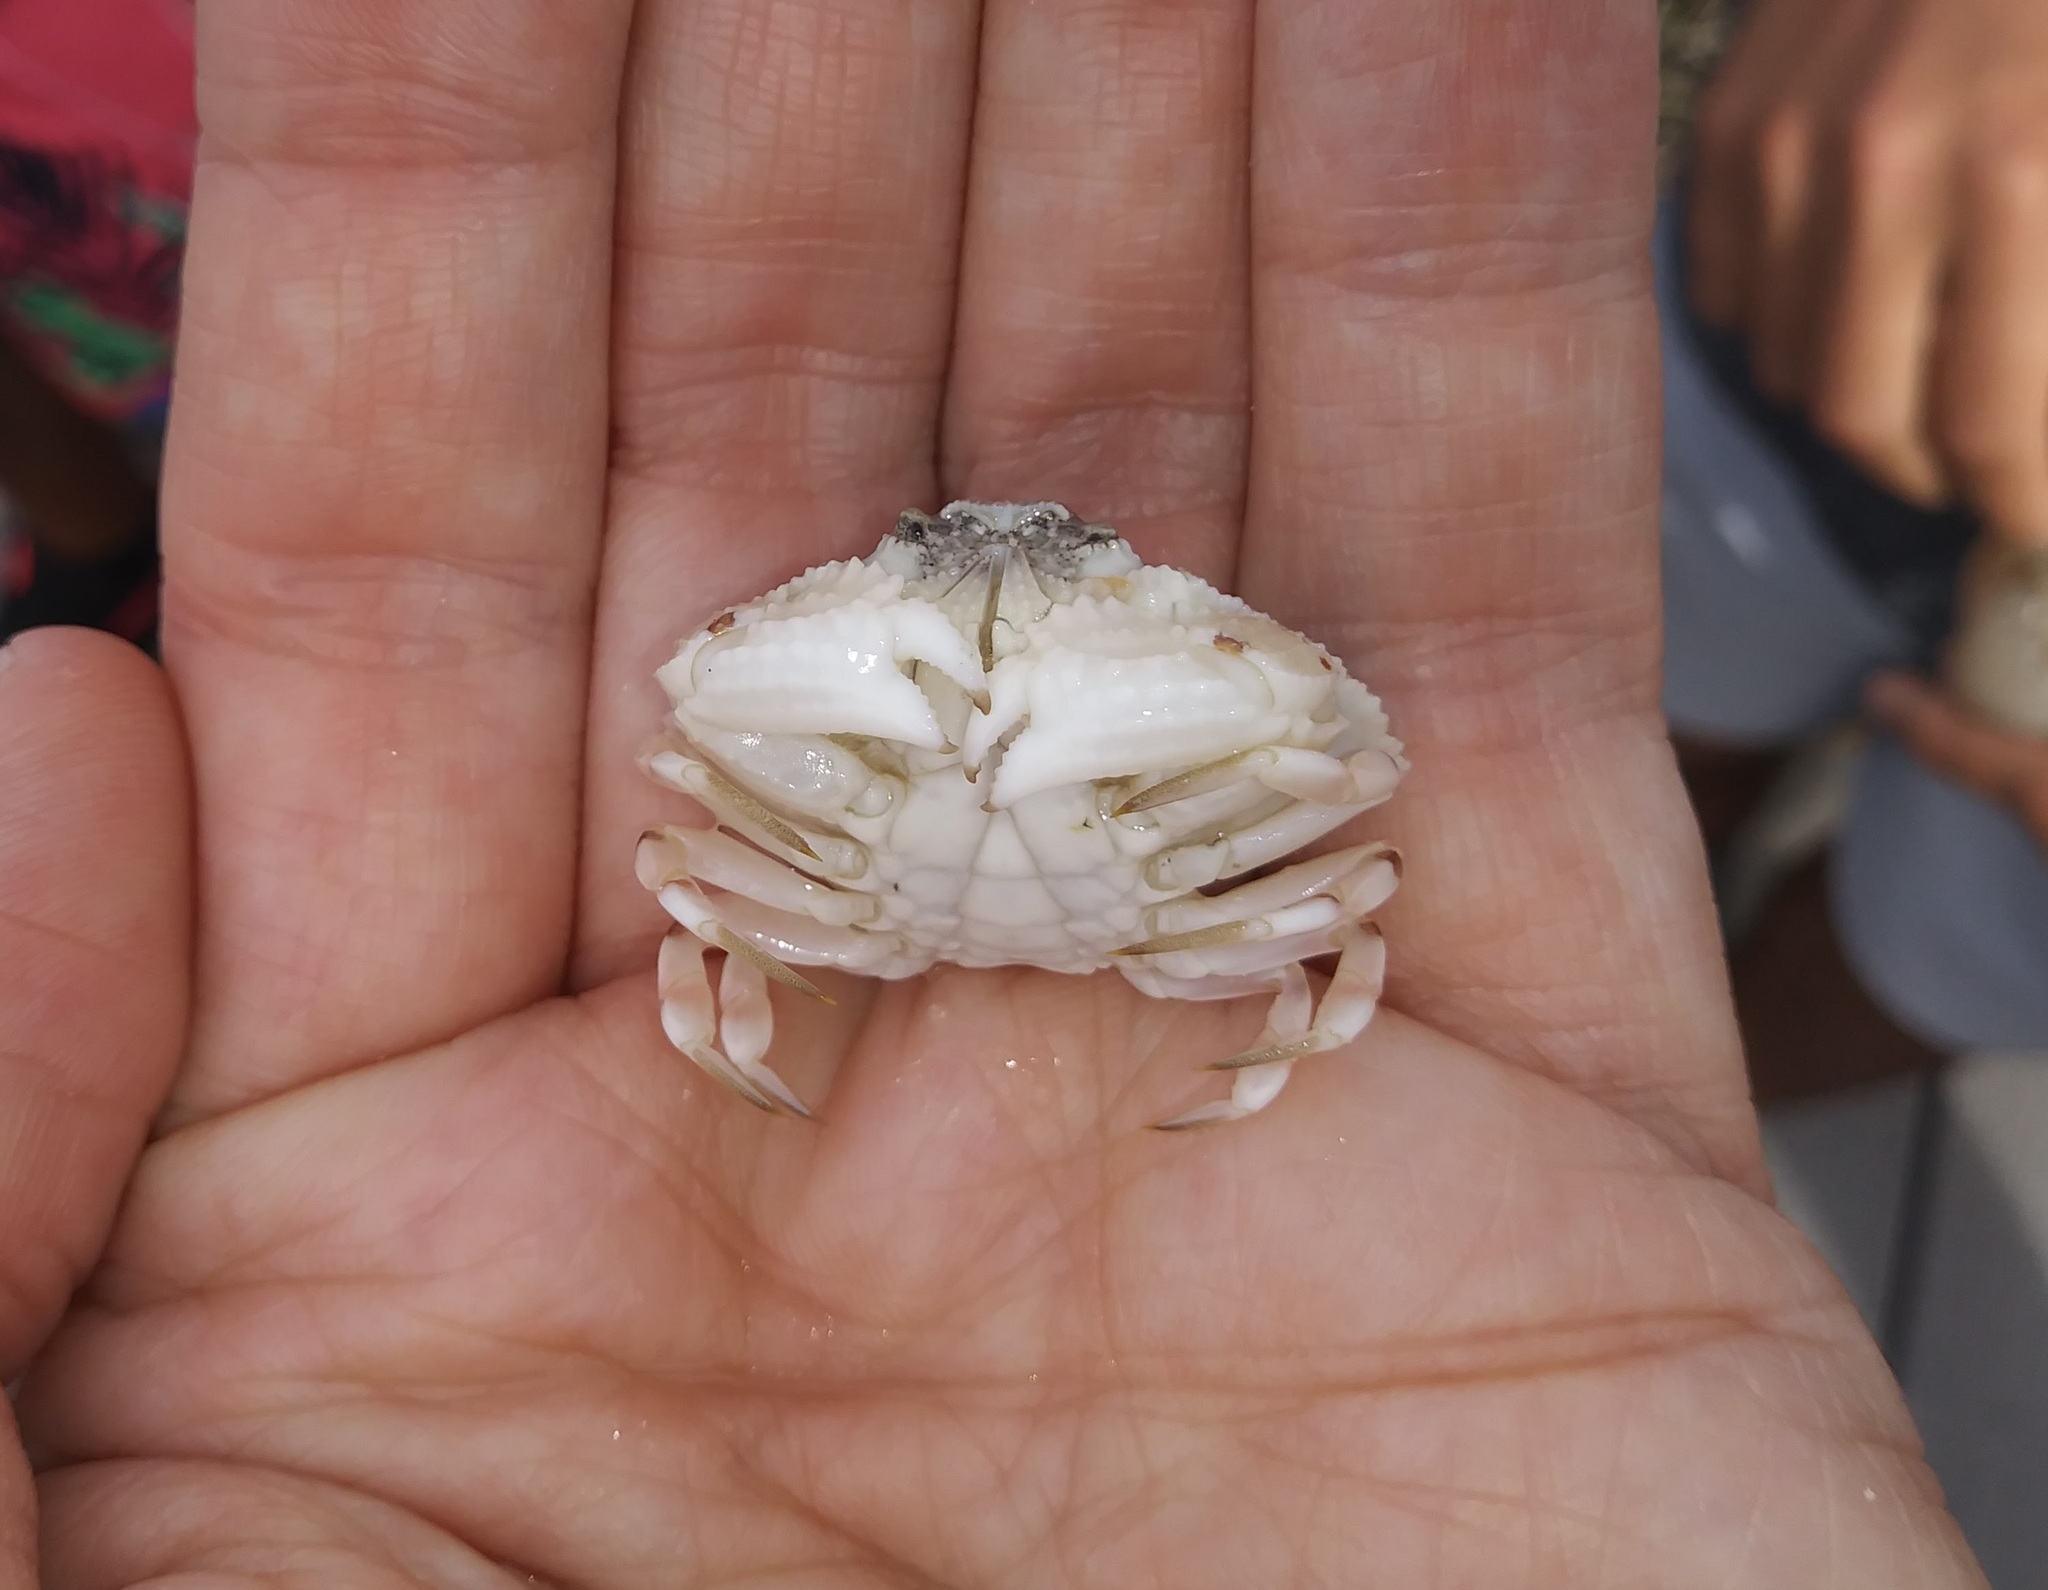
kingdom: Animalia
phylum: Arthropoda
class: Malacostraca
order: Decapoda
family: Aethridae
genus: Hepatus
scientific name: Hepatus epheliticus
